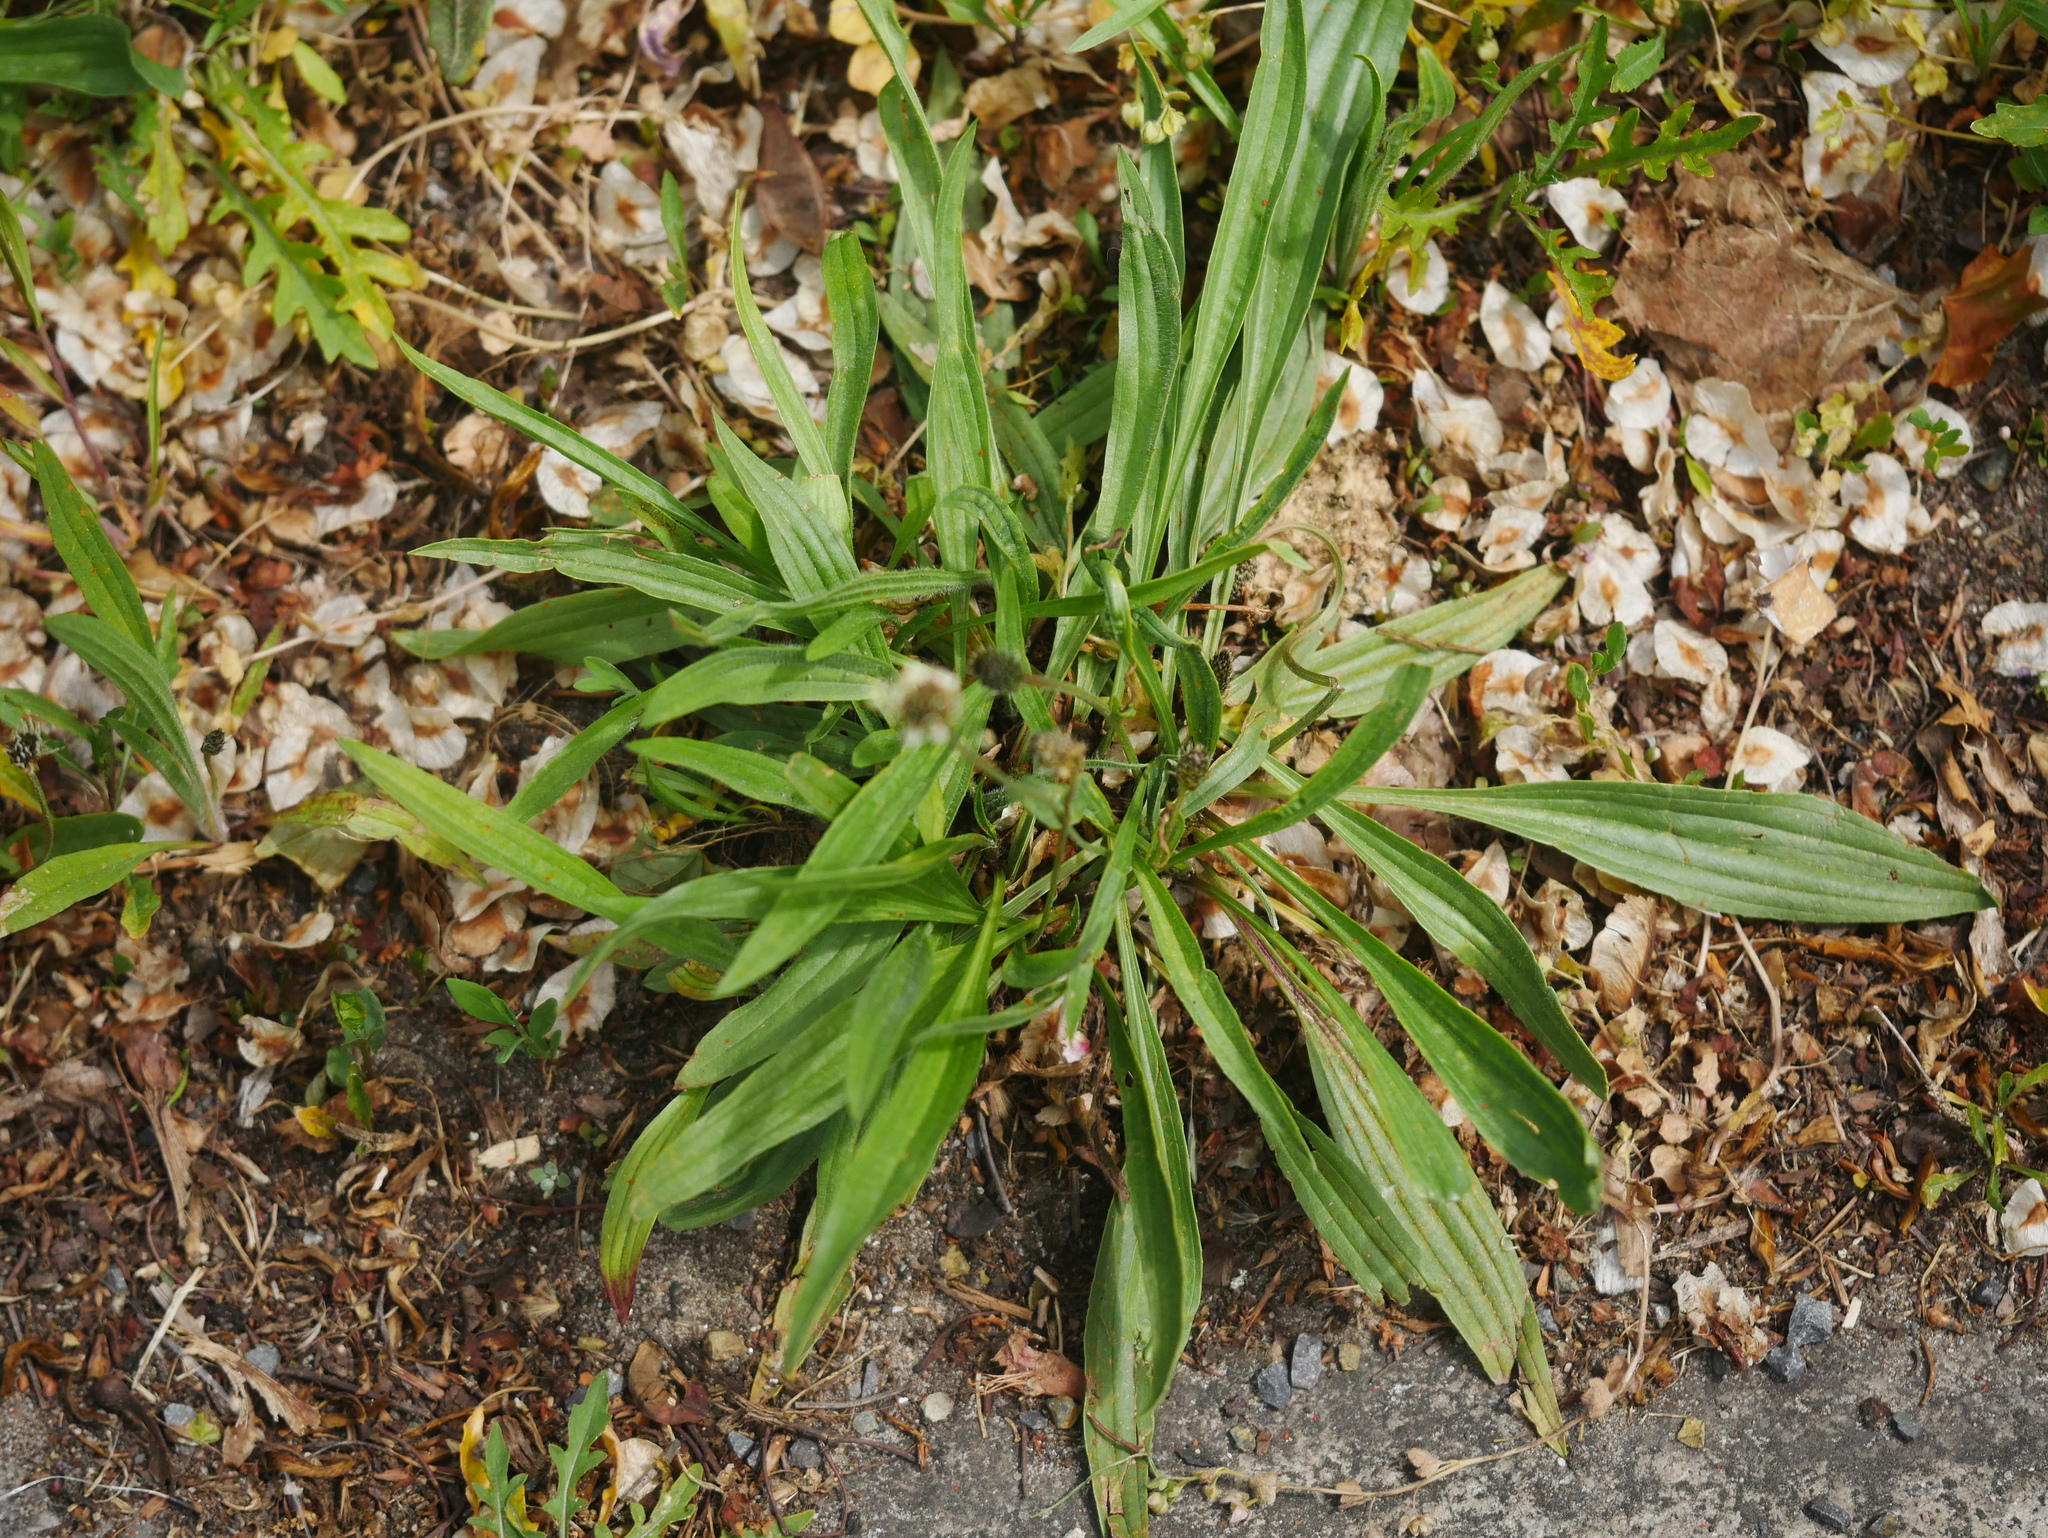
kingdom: Plantae
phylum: Tracheophyta
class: Magnoliopsida
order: Lamiales
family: Plantaginaceae
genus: Plantago
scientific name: Plantago lanceolata
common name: Ribwort plantain
